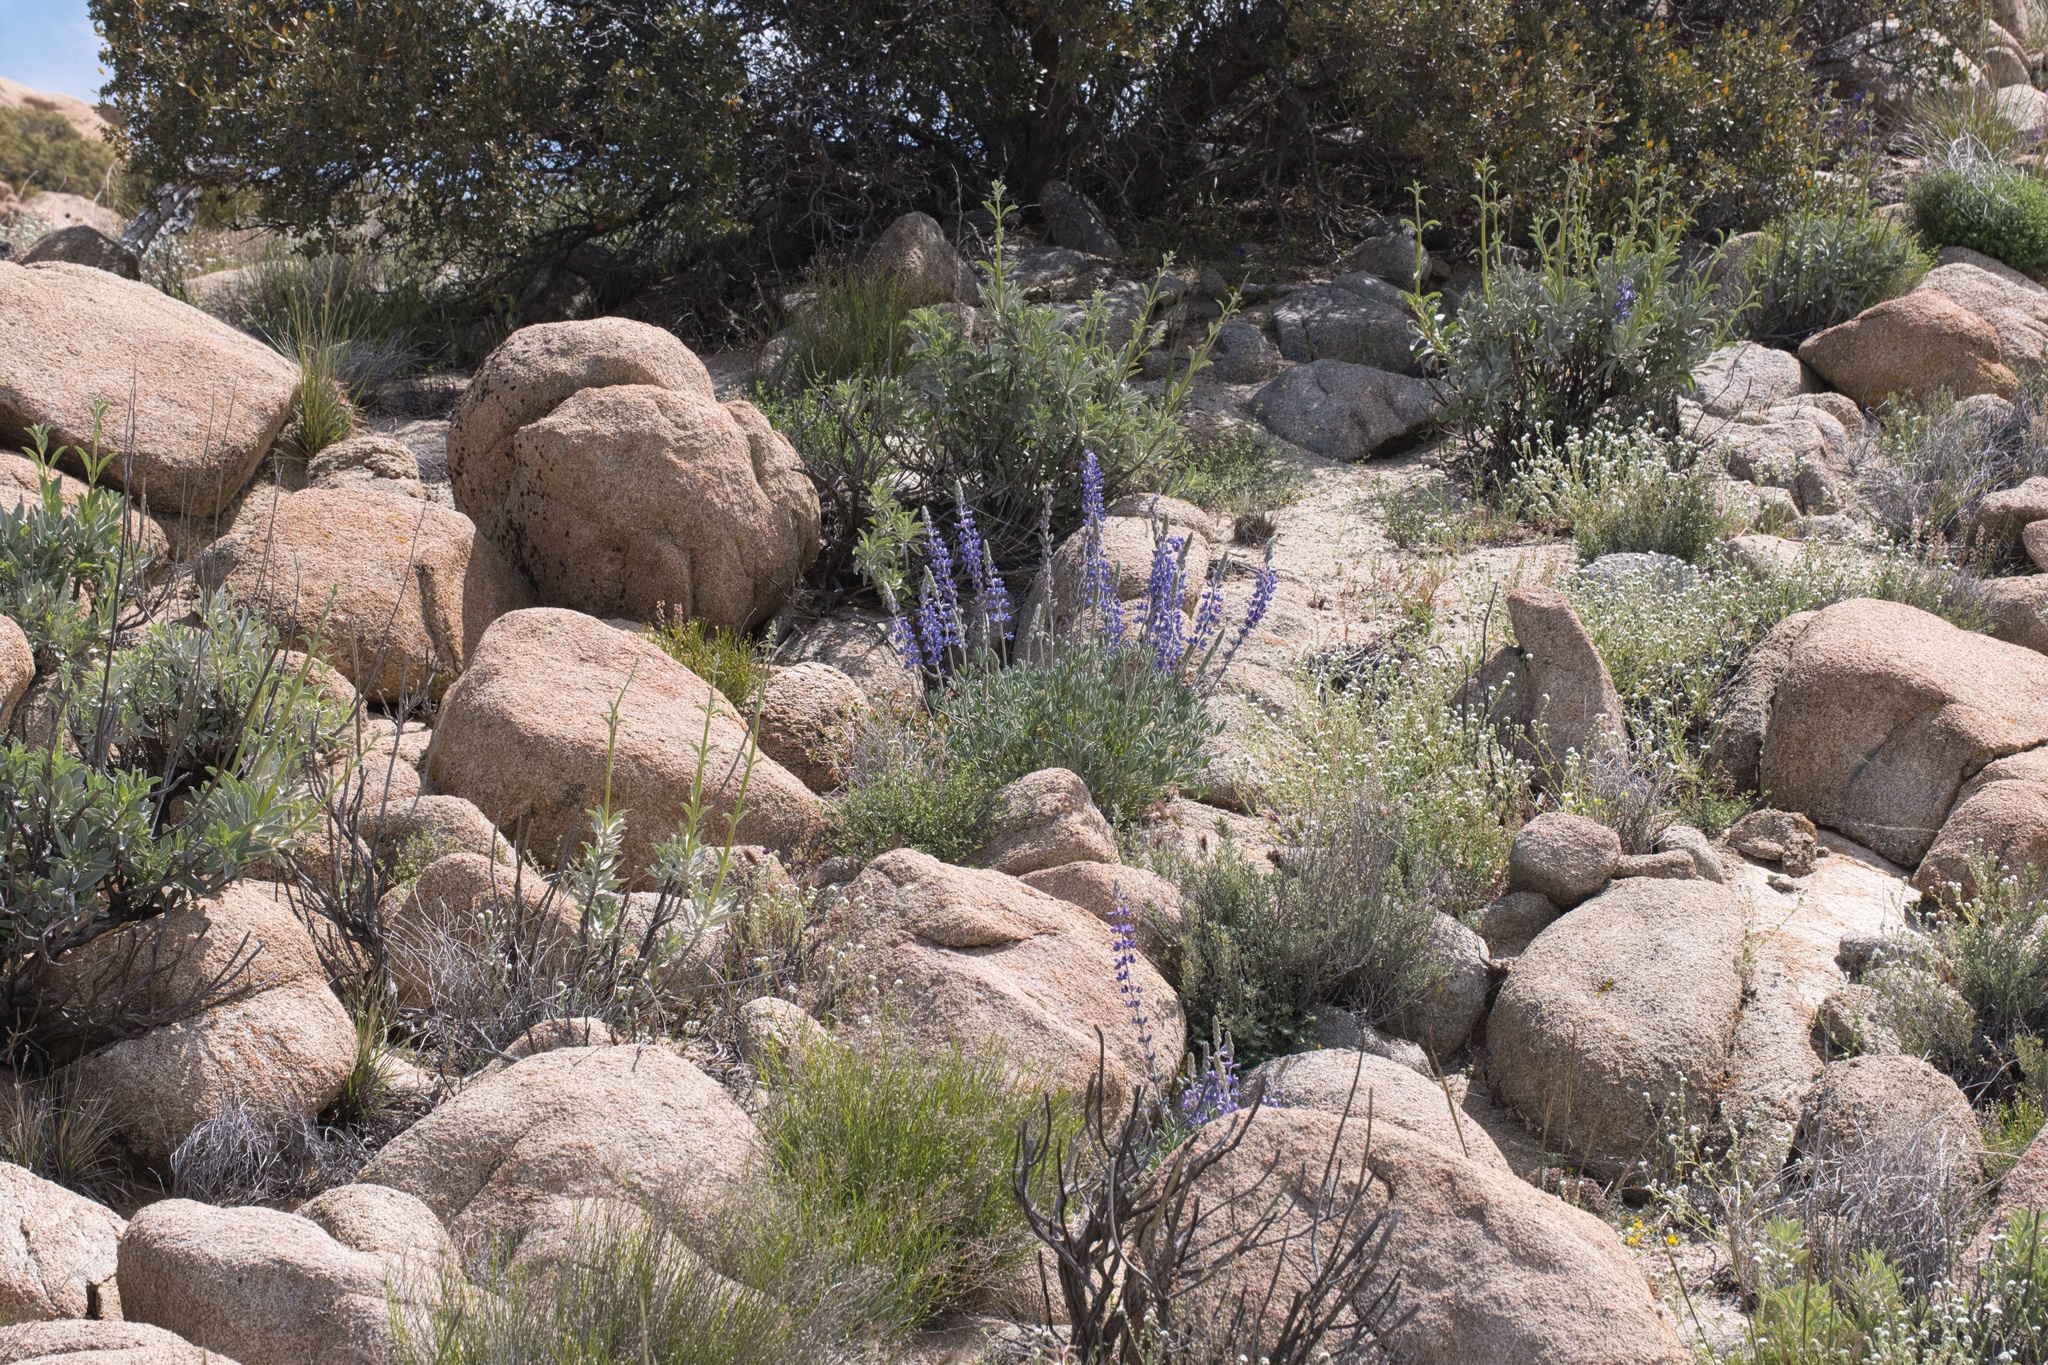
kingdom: Plantae
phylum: Tracheophyta
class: Magnoliopsida
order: Fabales
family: Fabaceae
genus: Lupinus
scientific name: Lupinus excubitus
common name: Grape soda lupine
